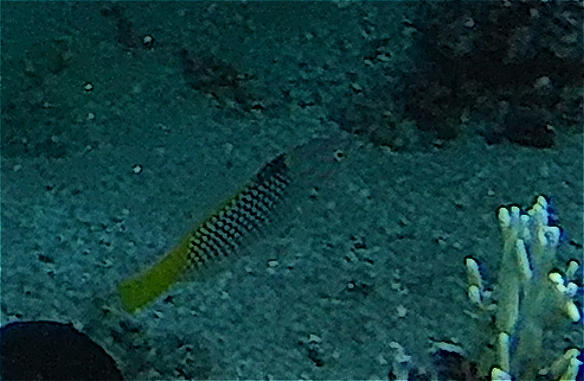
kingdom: Animalia
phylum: Chordata
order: Perciformes
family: Labridae
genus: Halichoeres
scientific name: Halichoeres hortulanus
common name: Checkerboard wrasse
